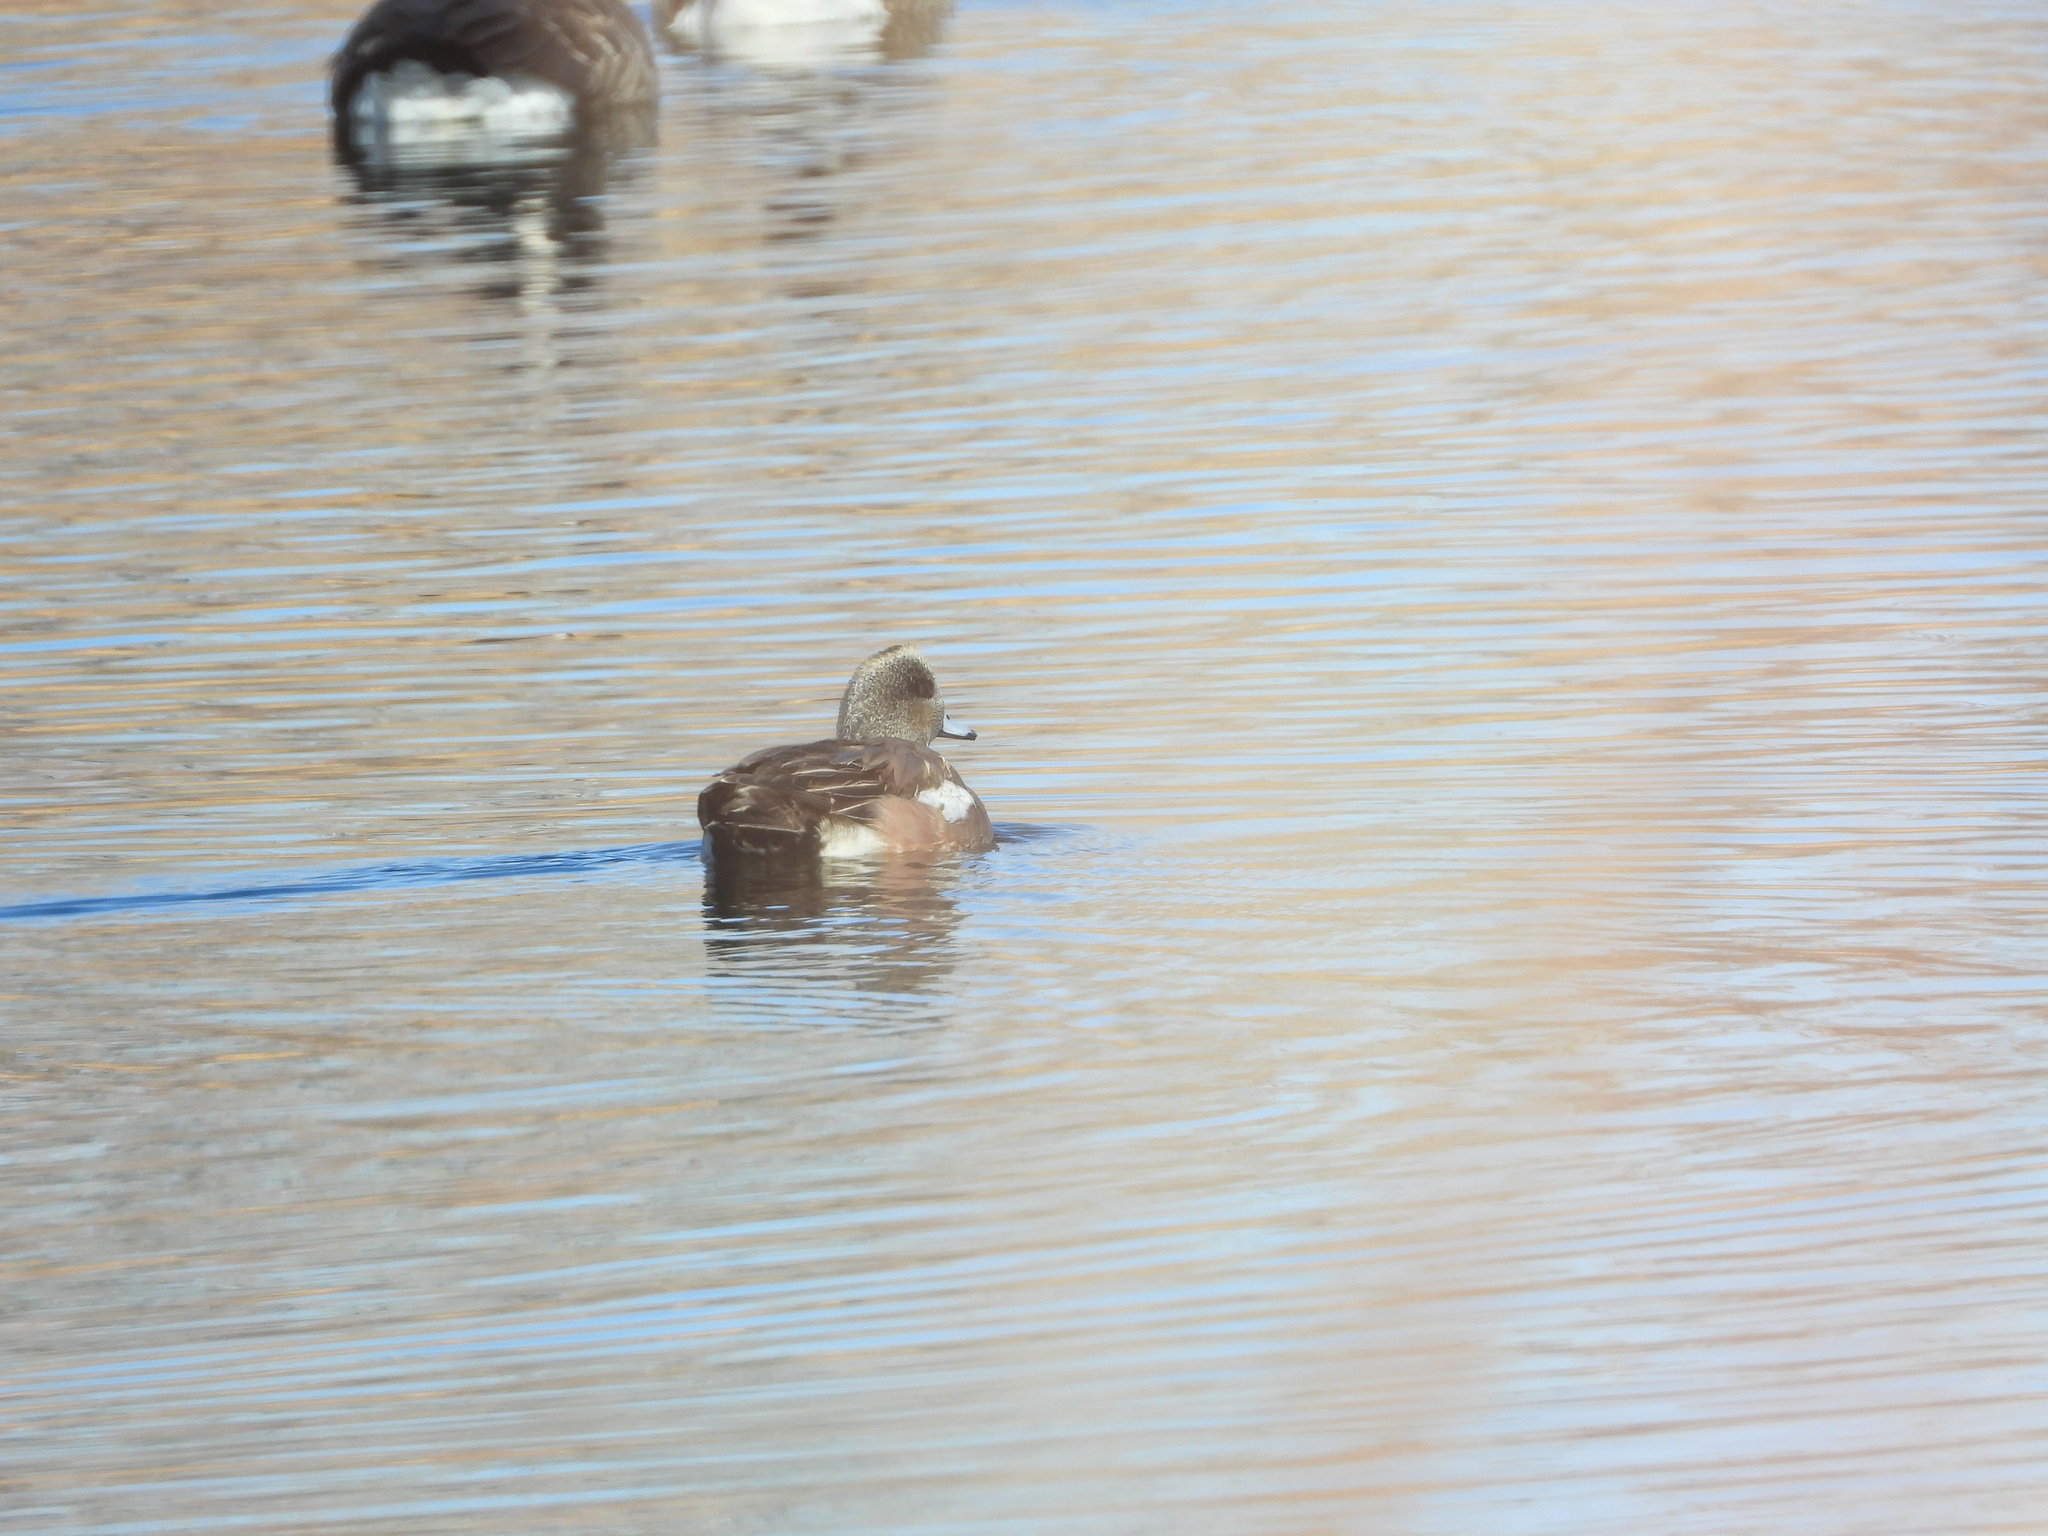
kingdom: Animalia
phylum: Chordata
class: Aves
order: Anseriformes
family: Anatidae
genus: Mareca
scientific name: Mareca americana
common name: American wigeon
